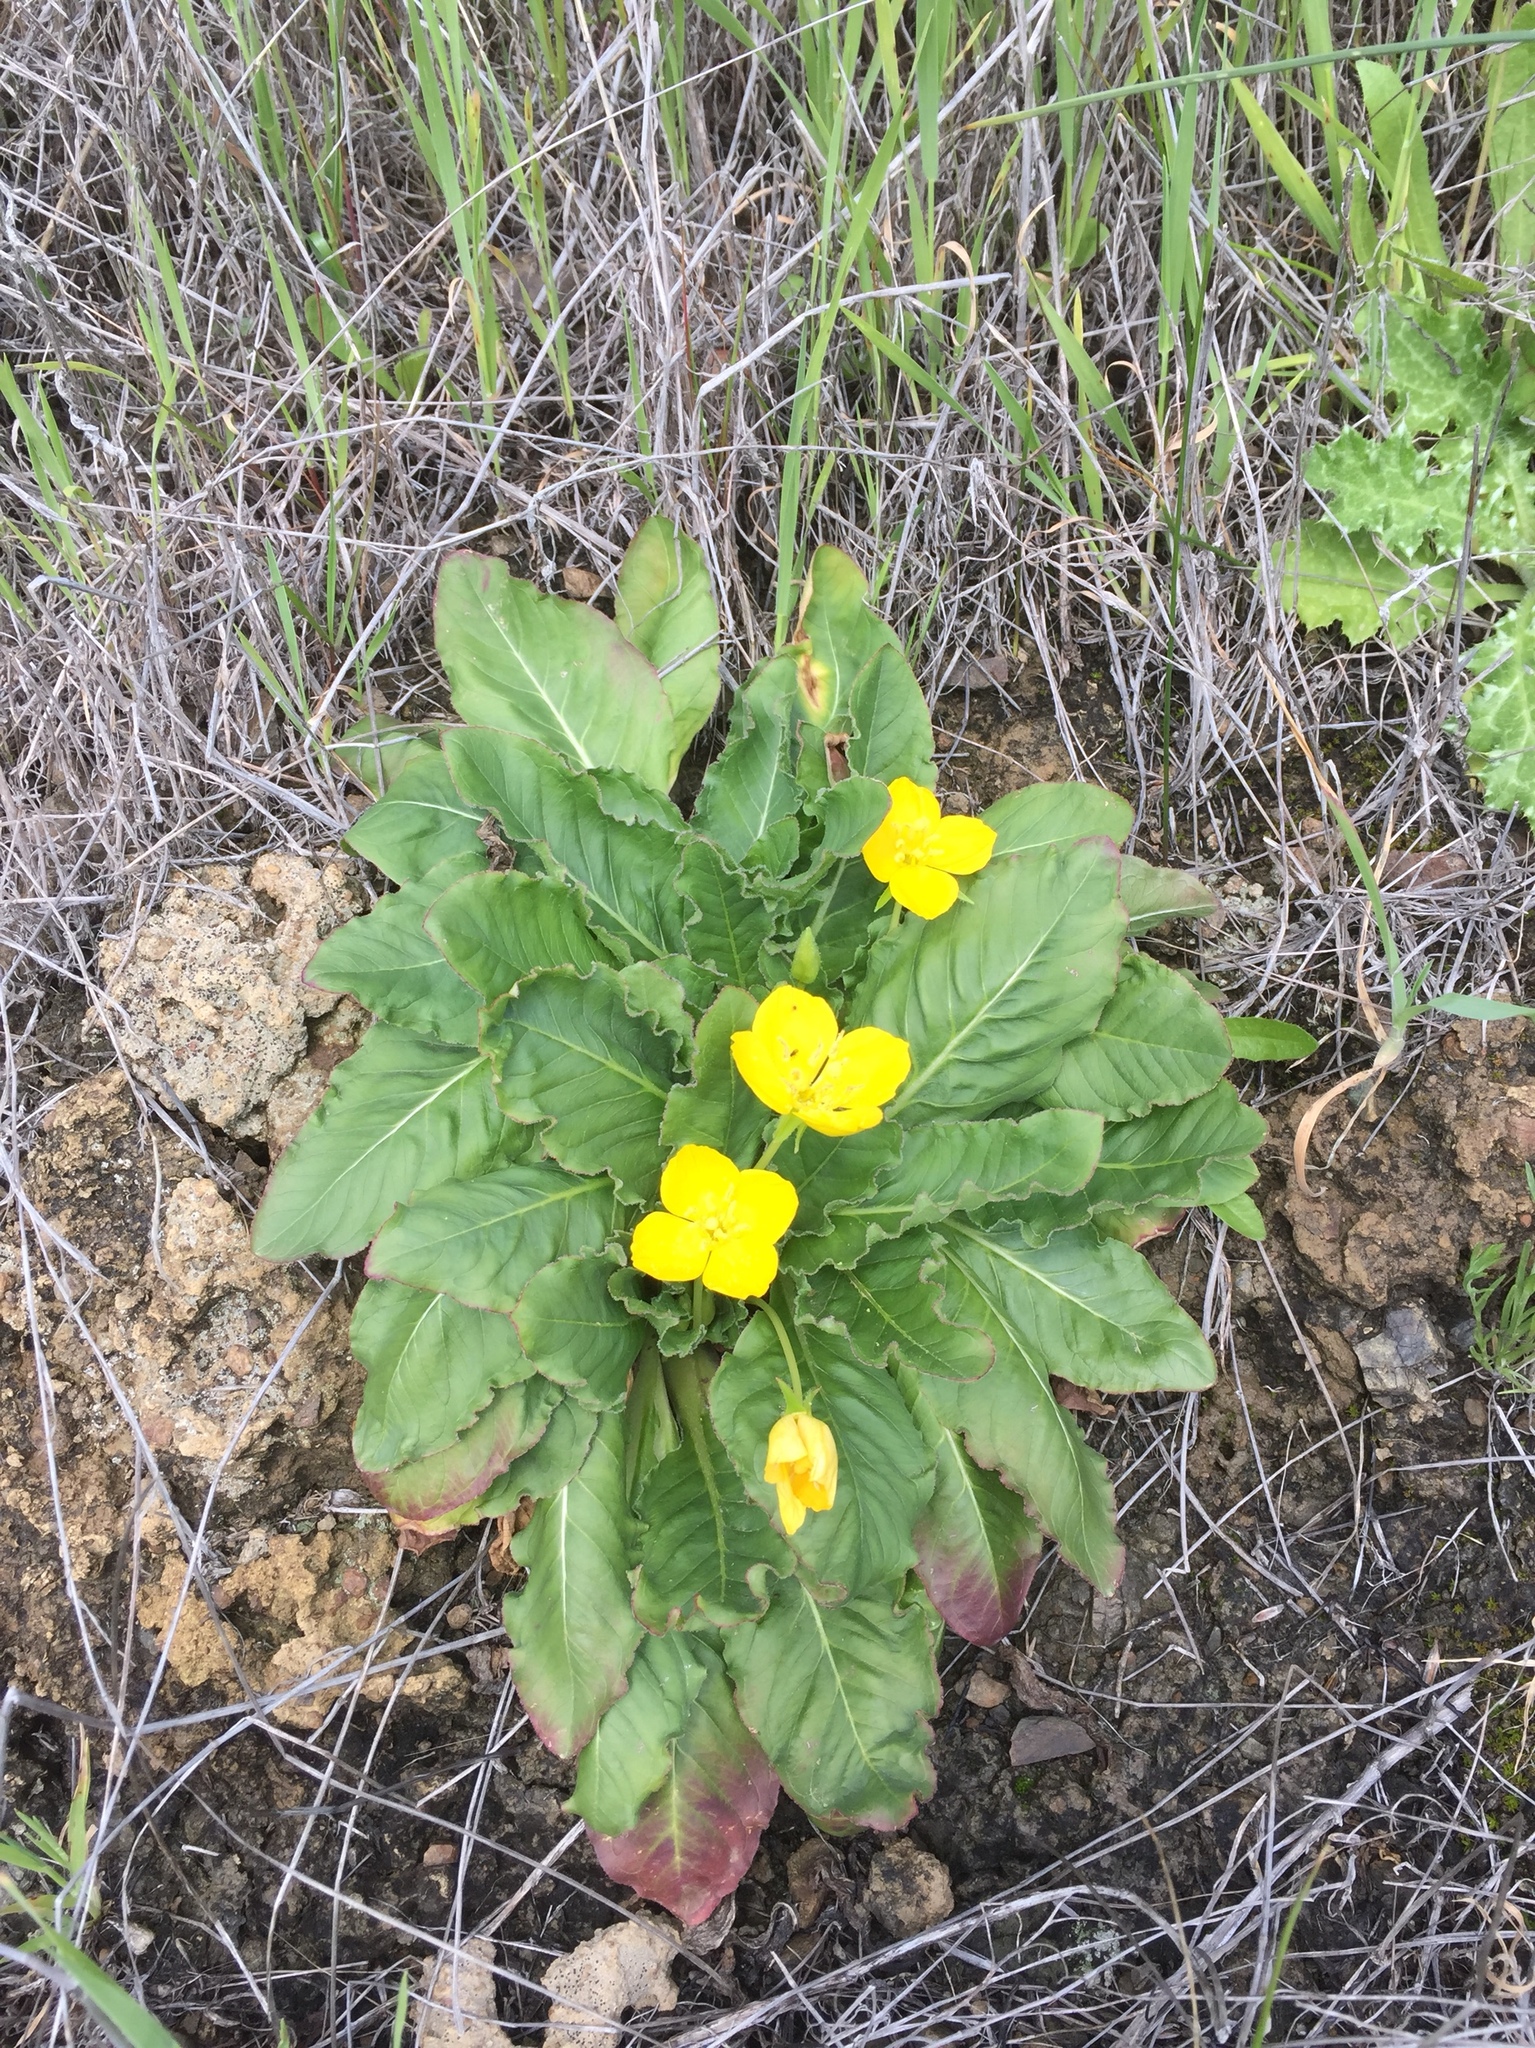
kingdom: Plantae
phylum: Tracheophyta
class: Magnoliopsida
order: Myrtales
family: Onagraceae
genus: Taraxia
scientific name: Taraxia ovata
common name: Goldeneggs
